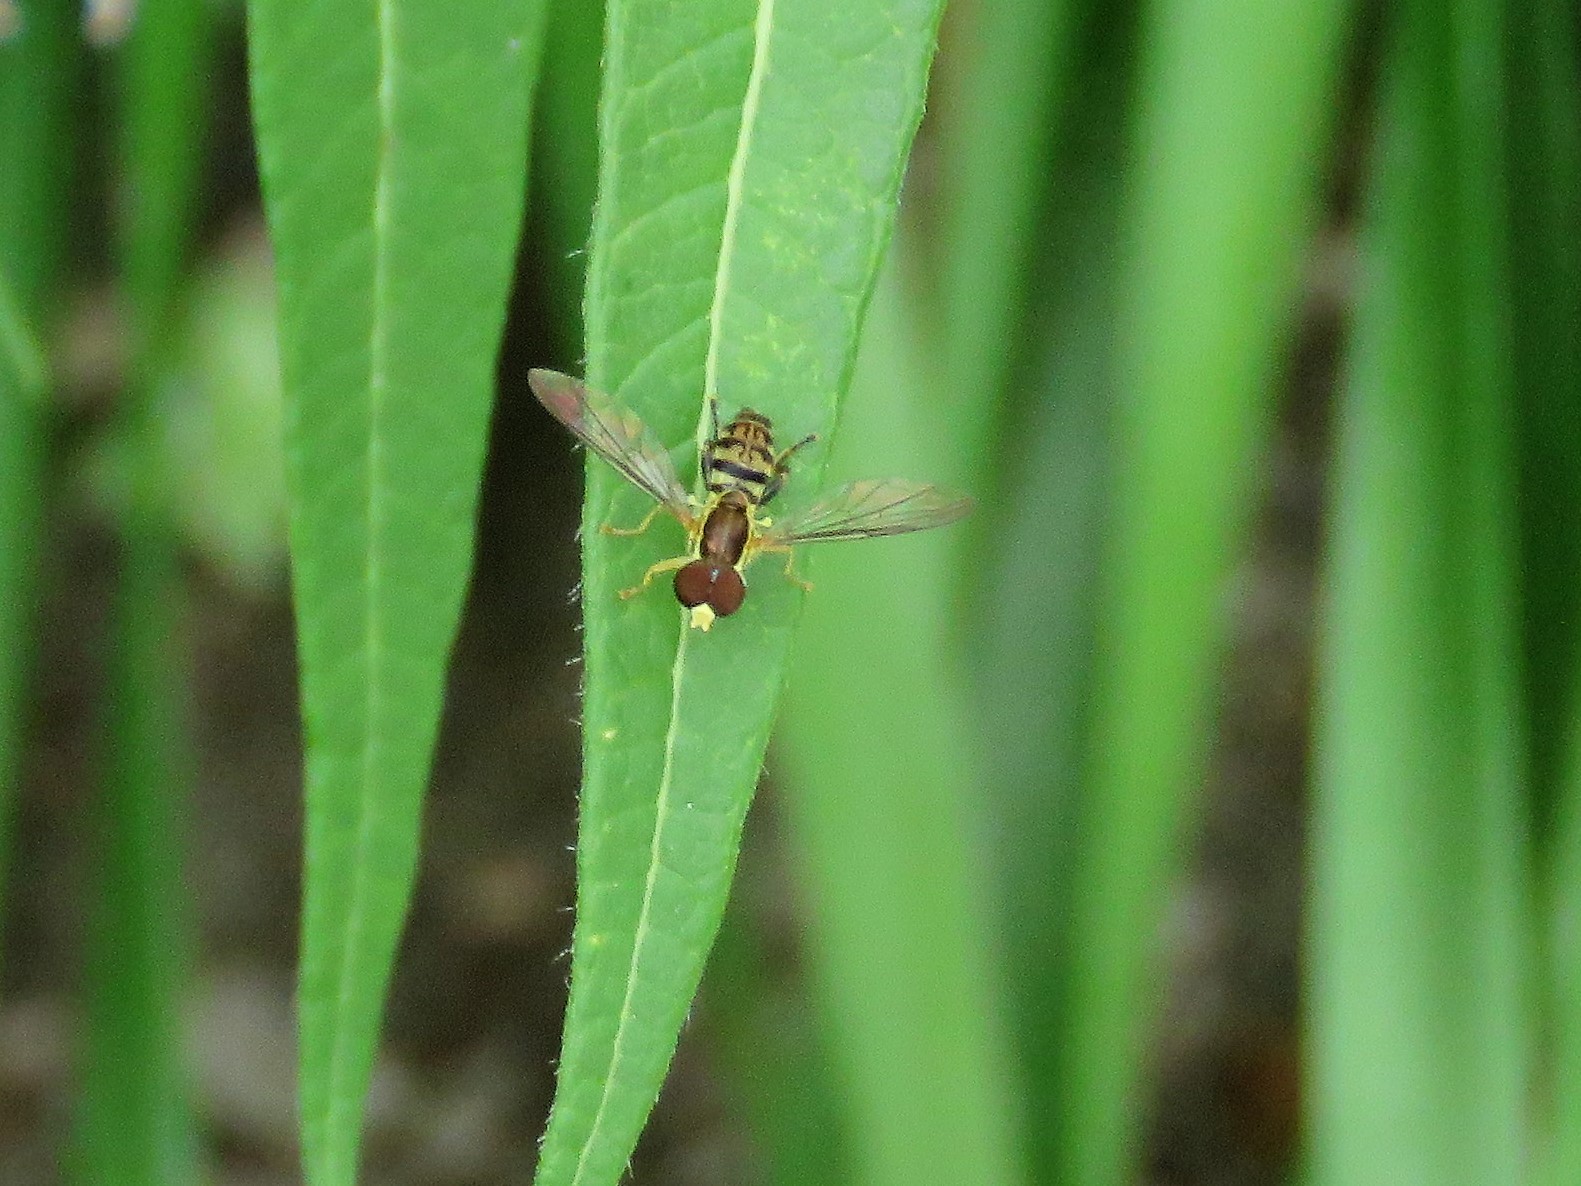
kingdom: Animalia
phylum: Arthropoda
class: Insecta
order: Diptera
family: Syrphidae
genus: Toxomerus
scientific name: Toxomerus geminatus
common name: Eastern calligrapher
